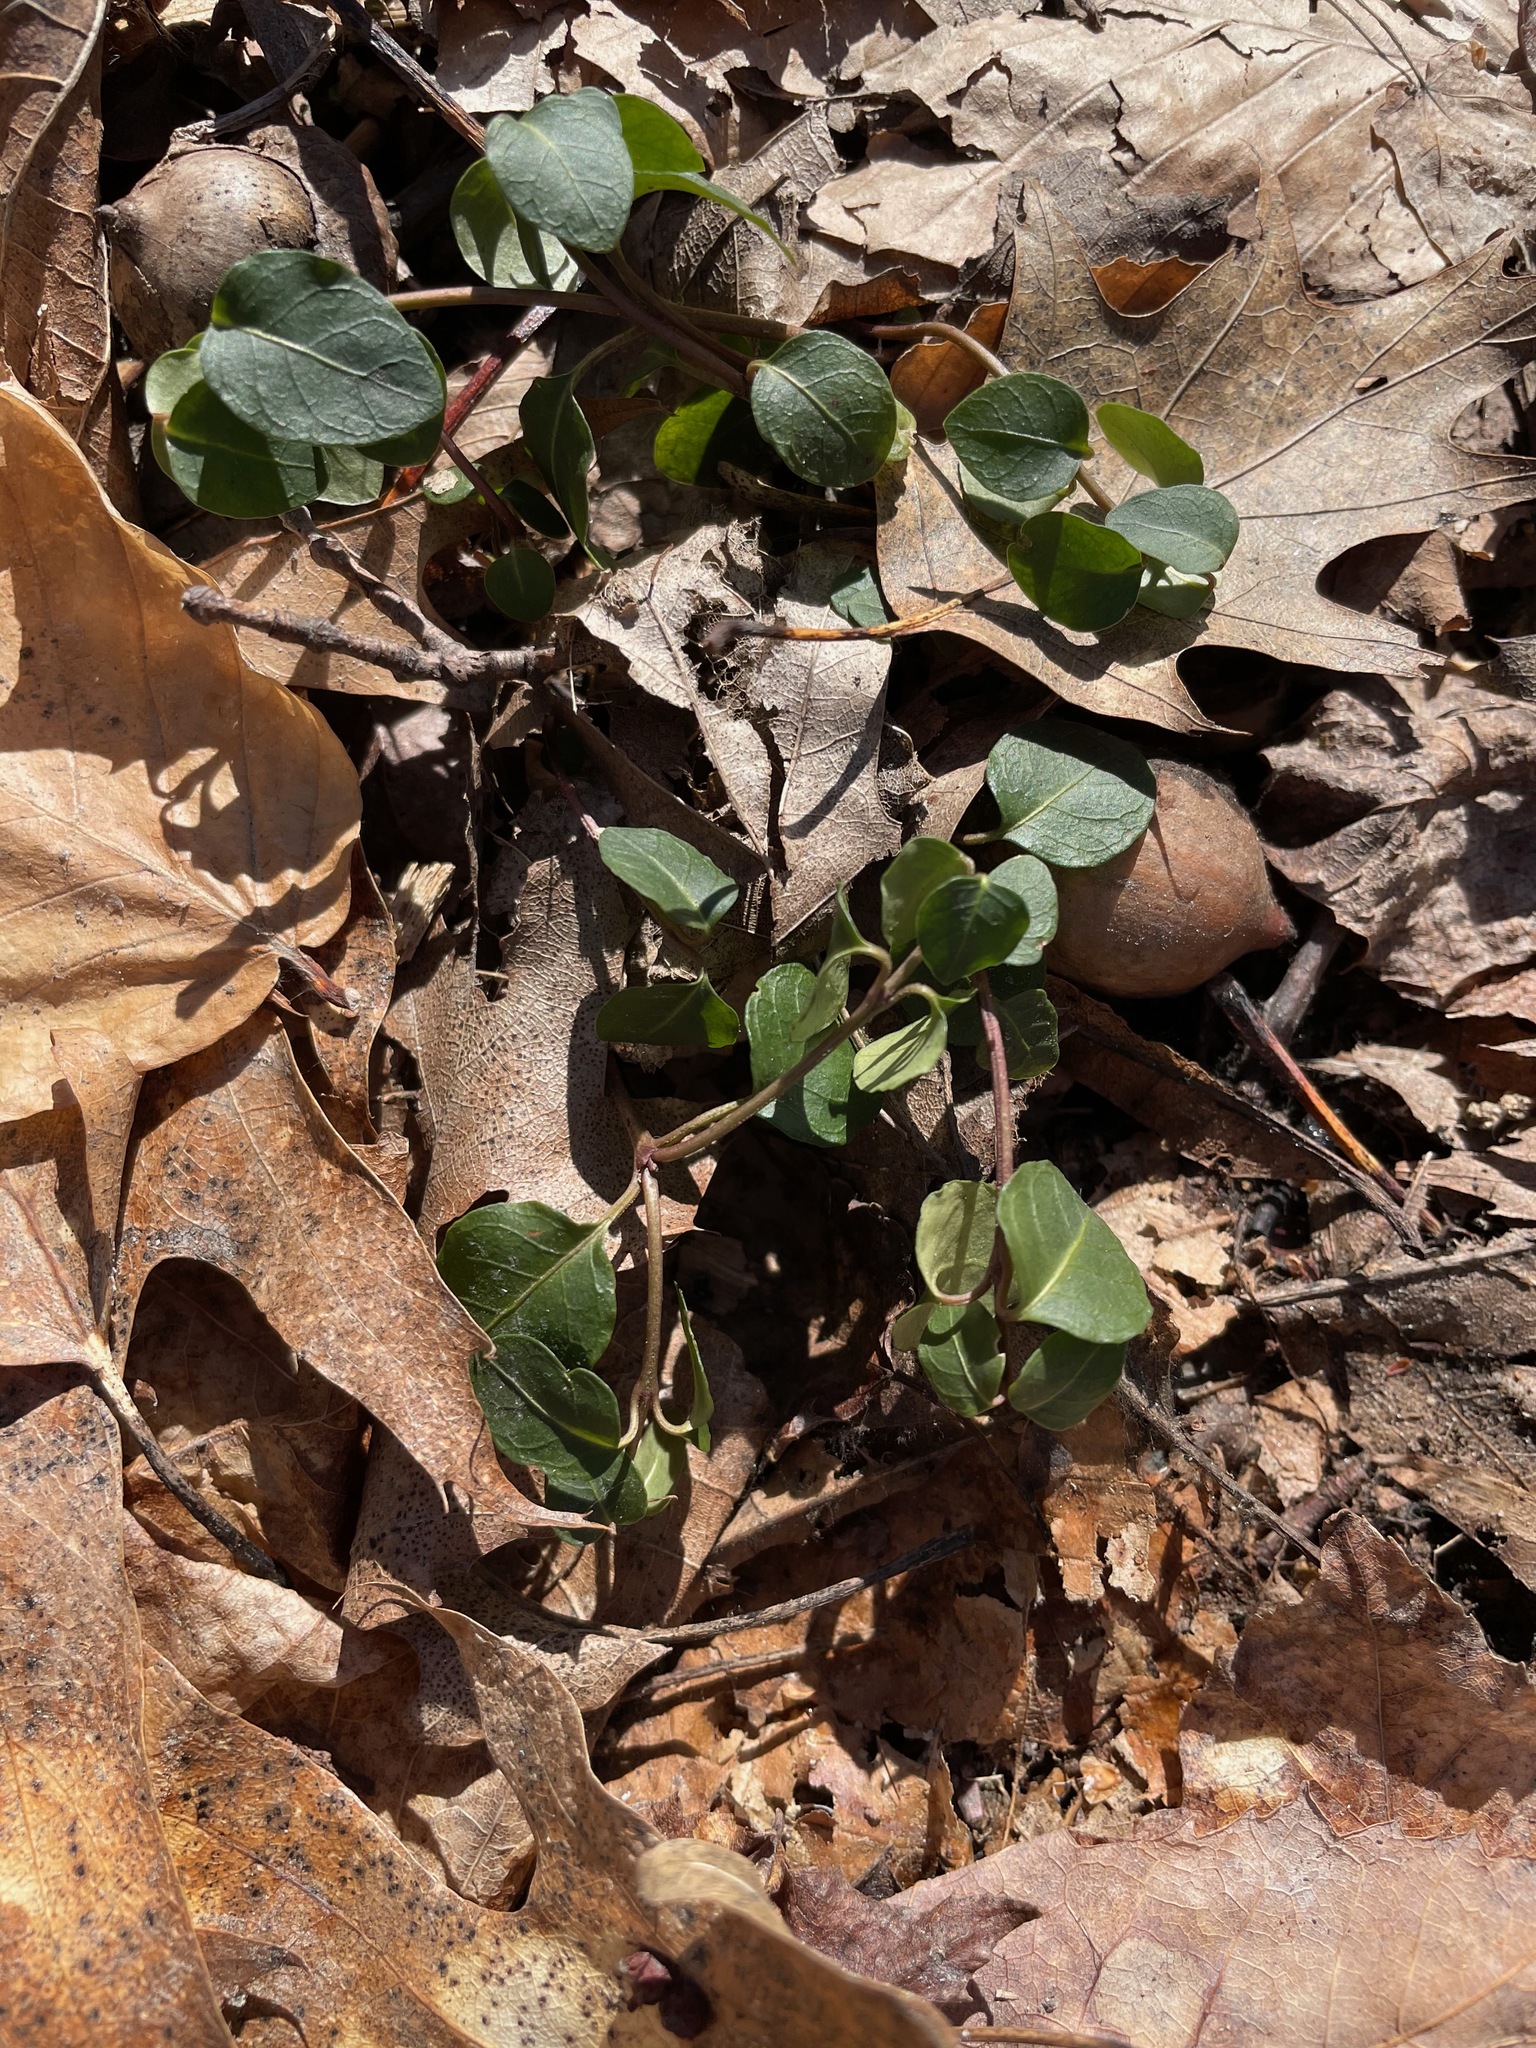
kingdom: Plantae
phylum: Tracheophyta
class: Magnoliopsida
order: Gentianales
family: Rubiaceae
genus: Mitchella
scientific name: Mitchella repens
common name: Partridge-berry
